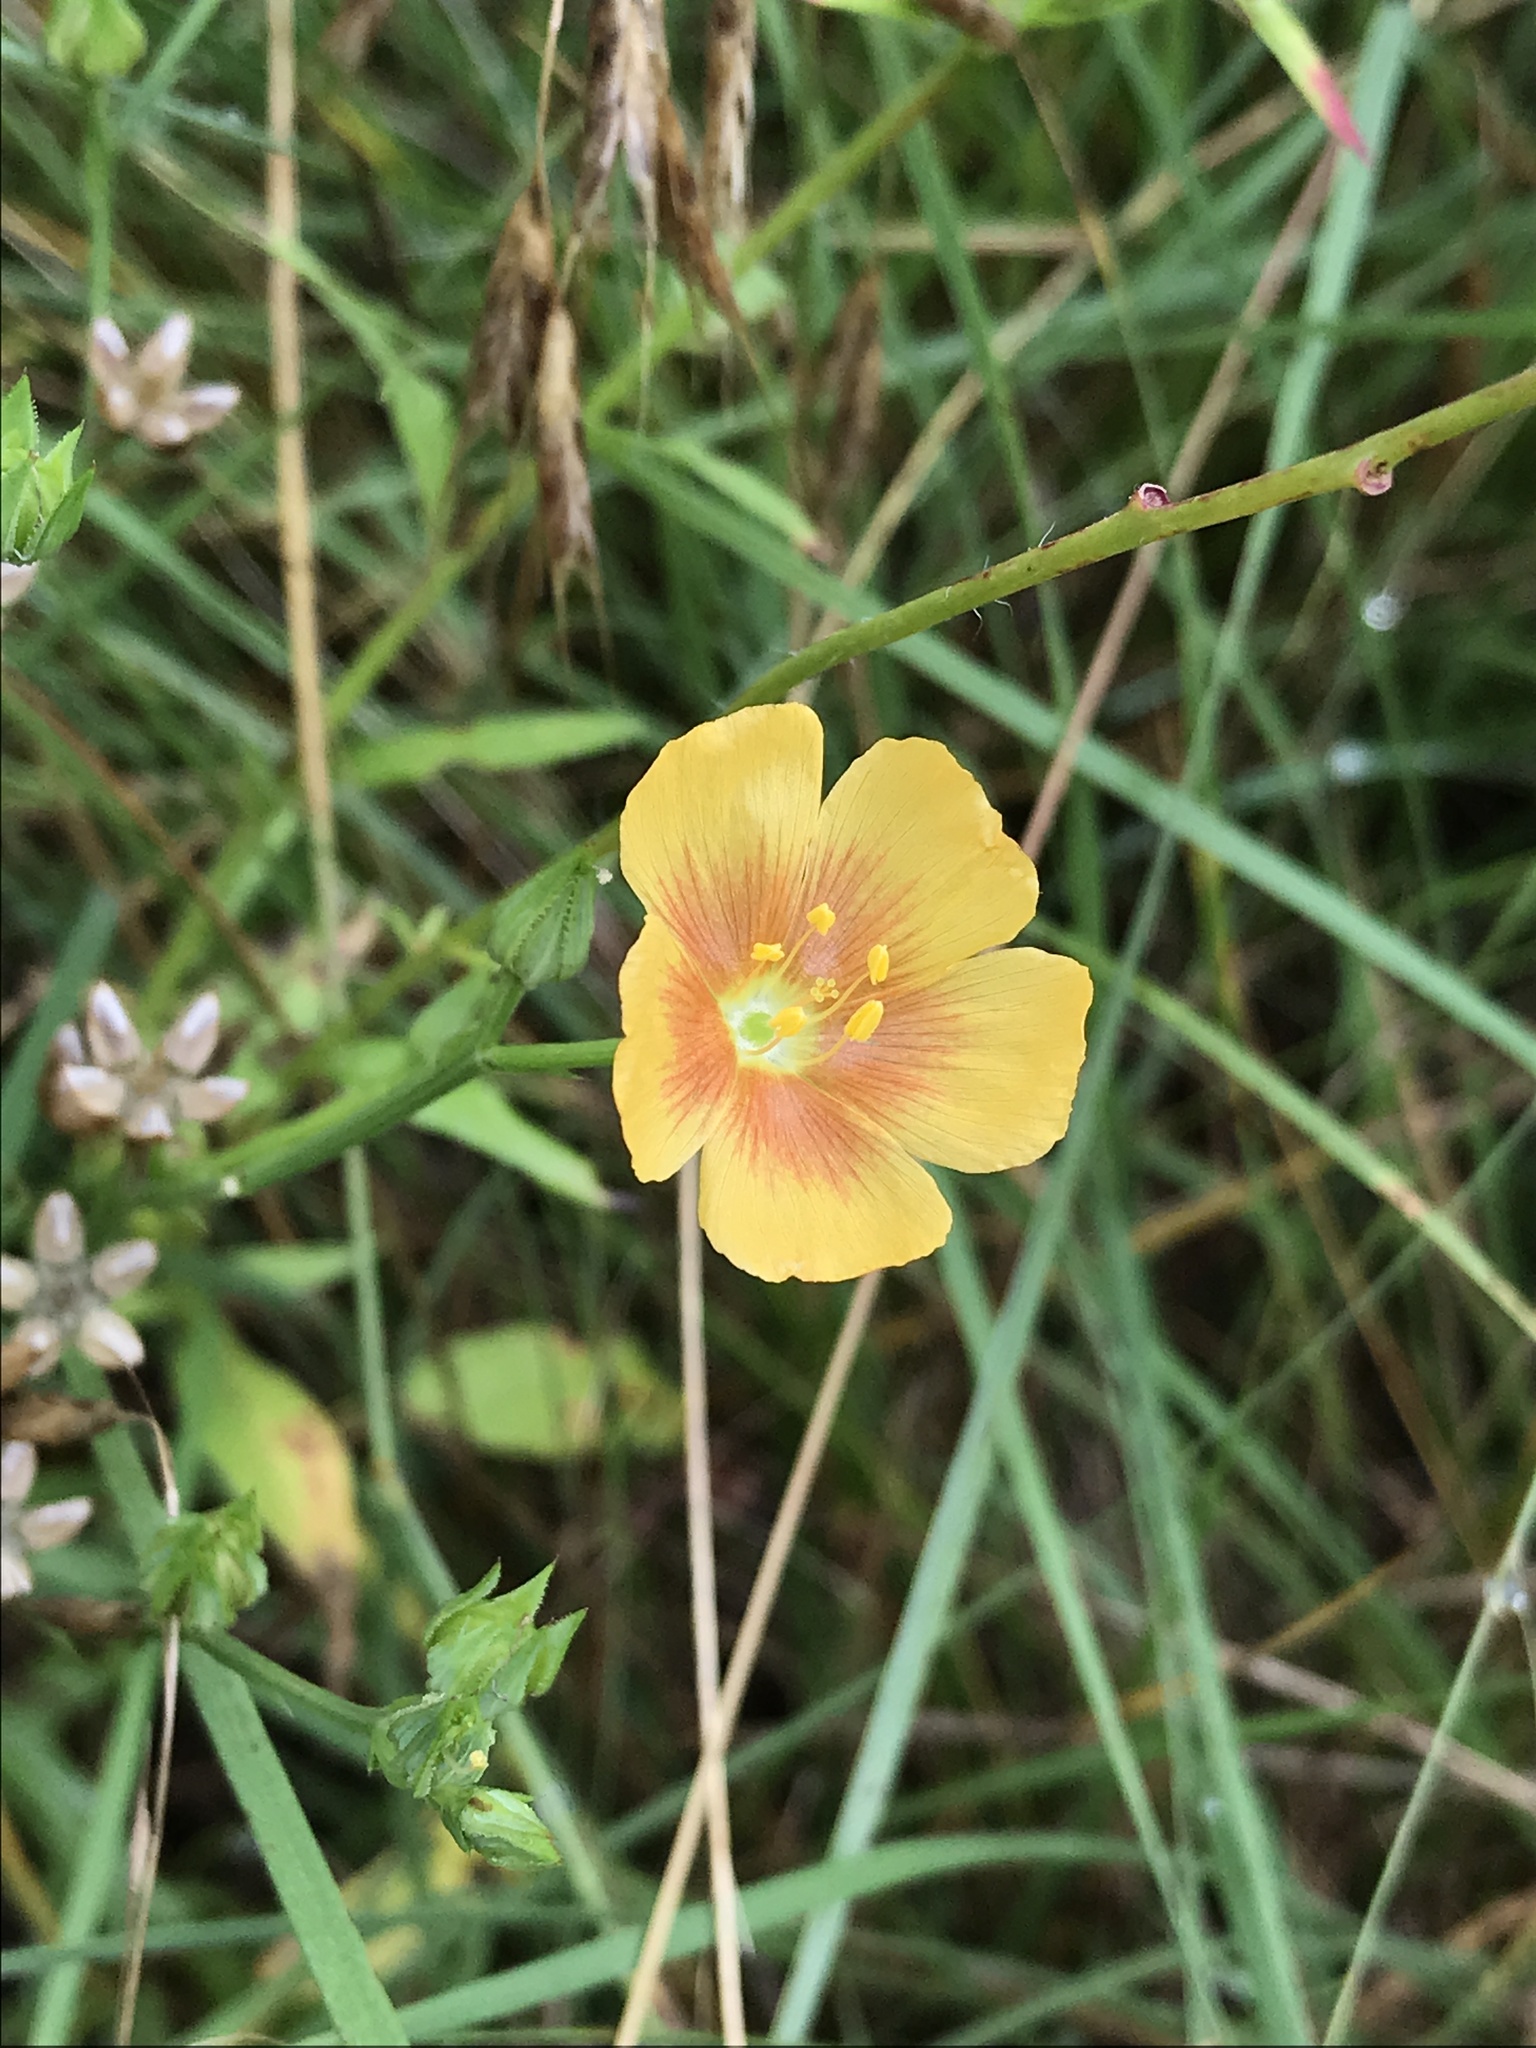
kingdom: Plantae
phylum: Tracheophyta
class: Magnoliopsida
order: Malpighiales
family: Linaceae
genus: Linum
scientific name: Linum rigidum
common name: Stiff-stem flax
